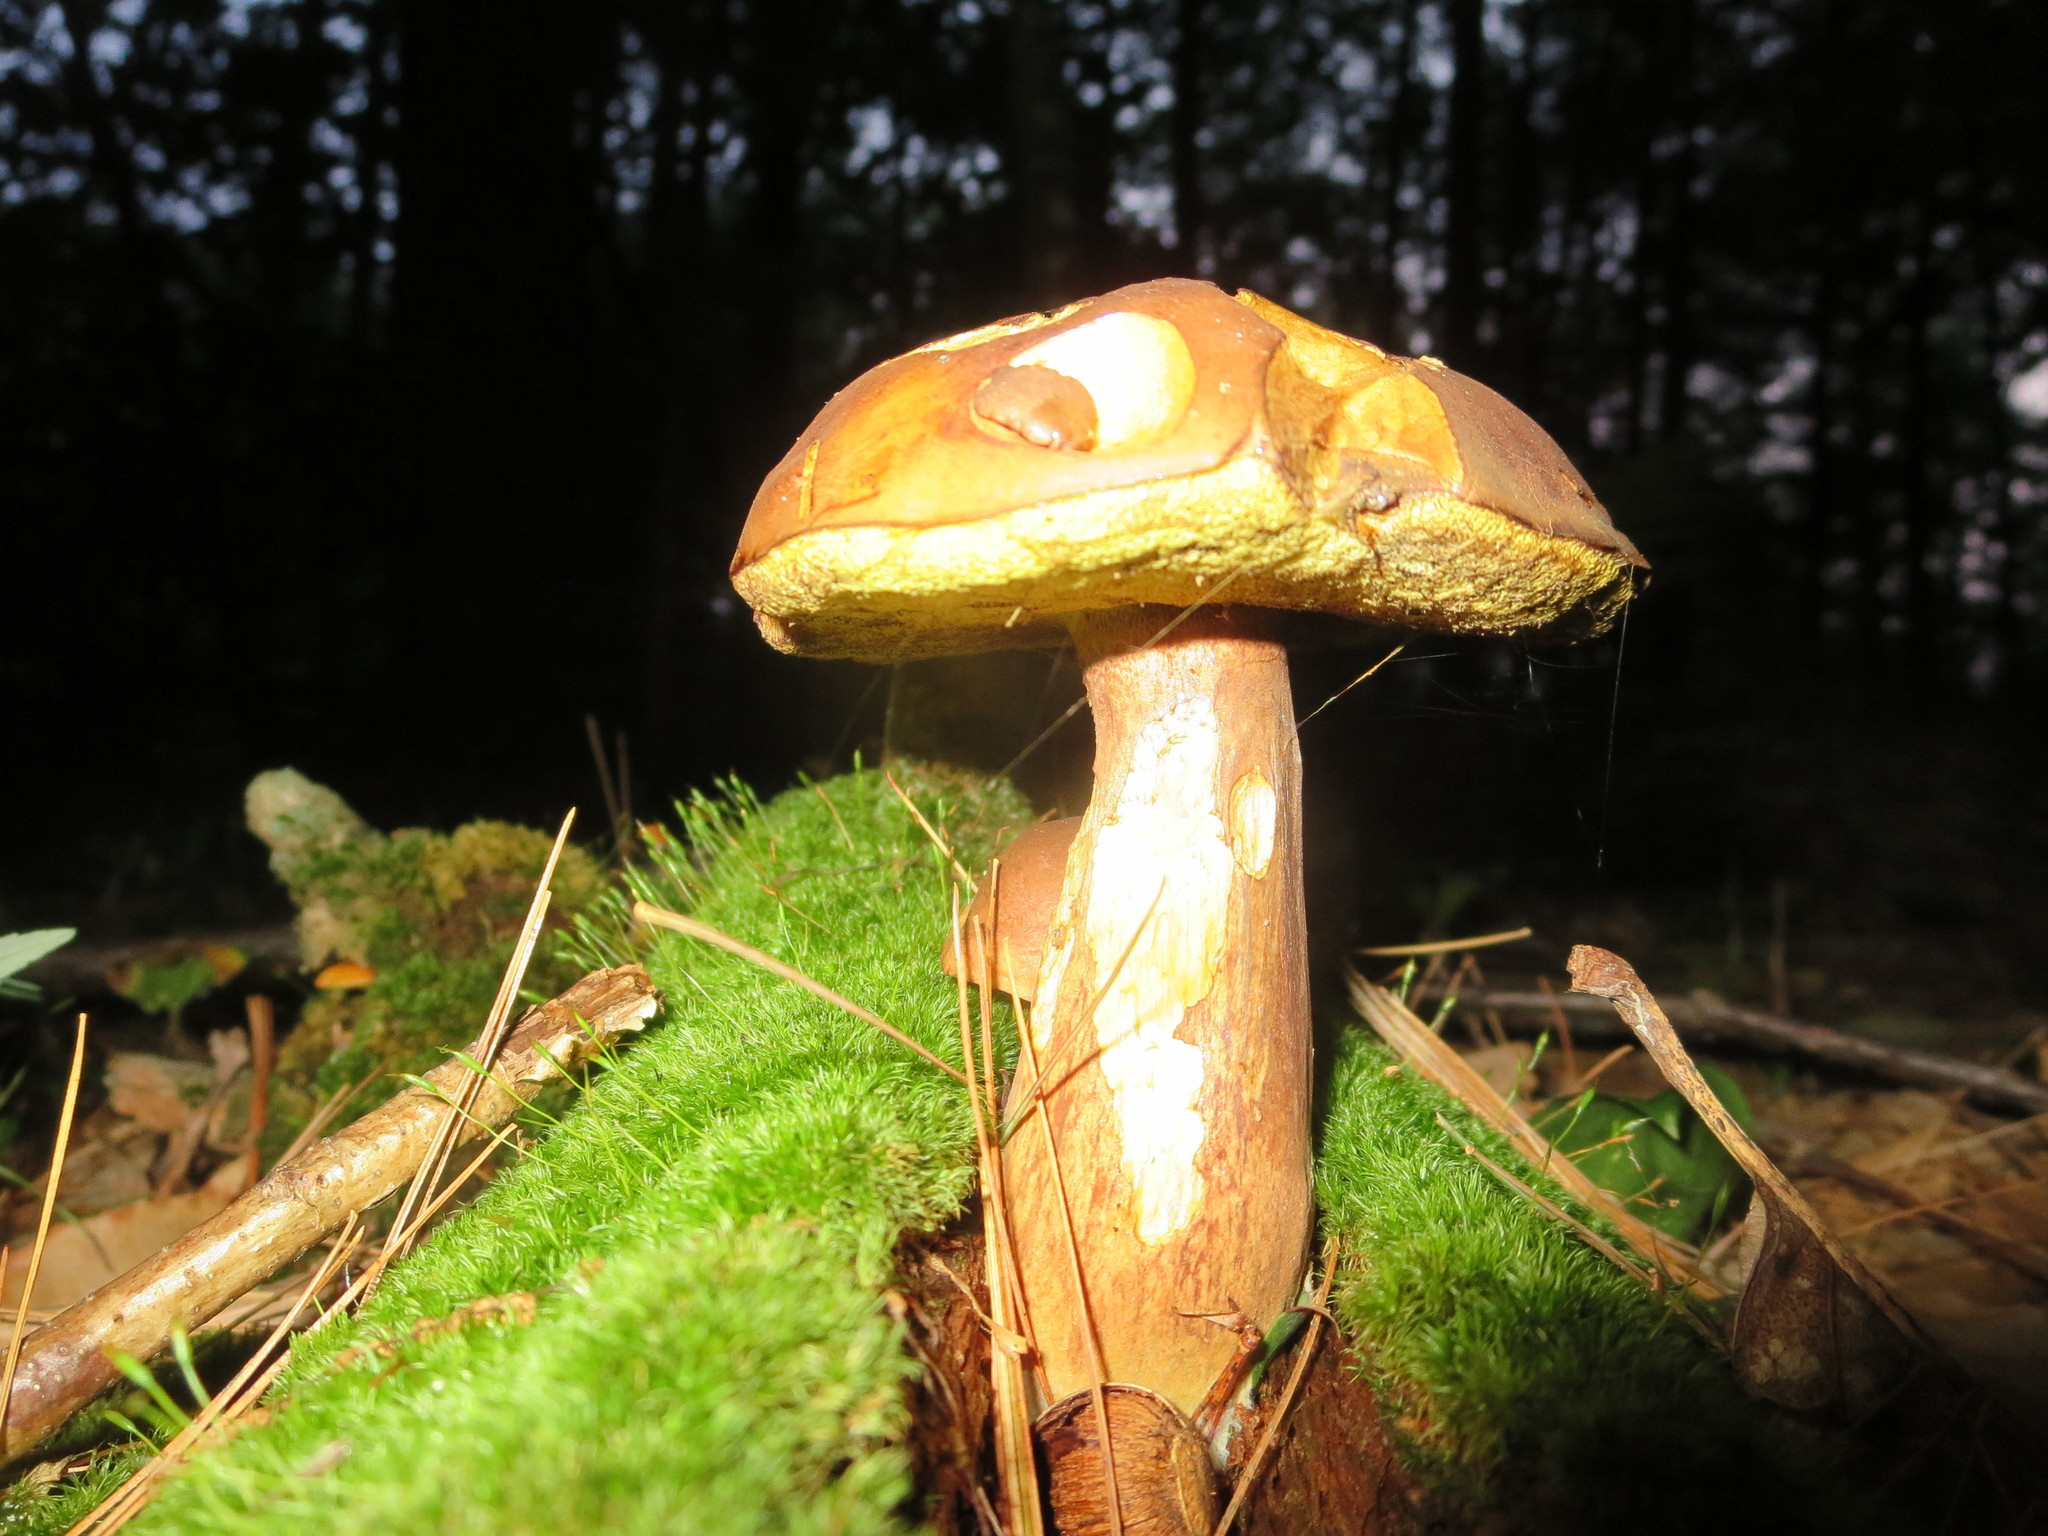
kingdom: Fungi
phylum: Basidiomycota
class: Agaricomycetes
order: Boletales
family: Boletaceae
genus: Imleria
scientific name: Imleria badia
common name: Bay bolete
